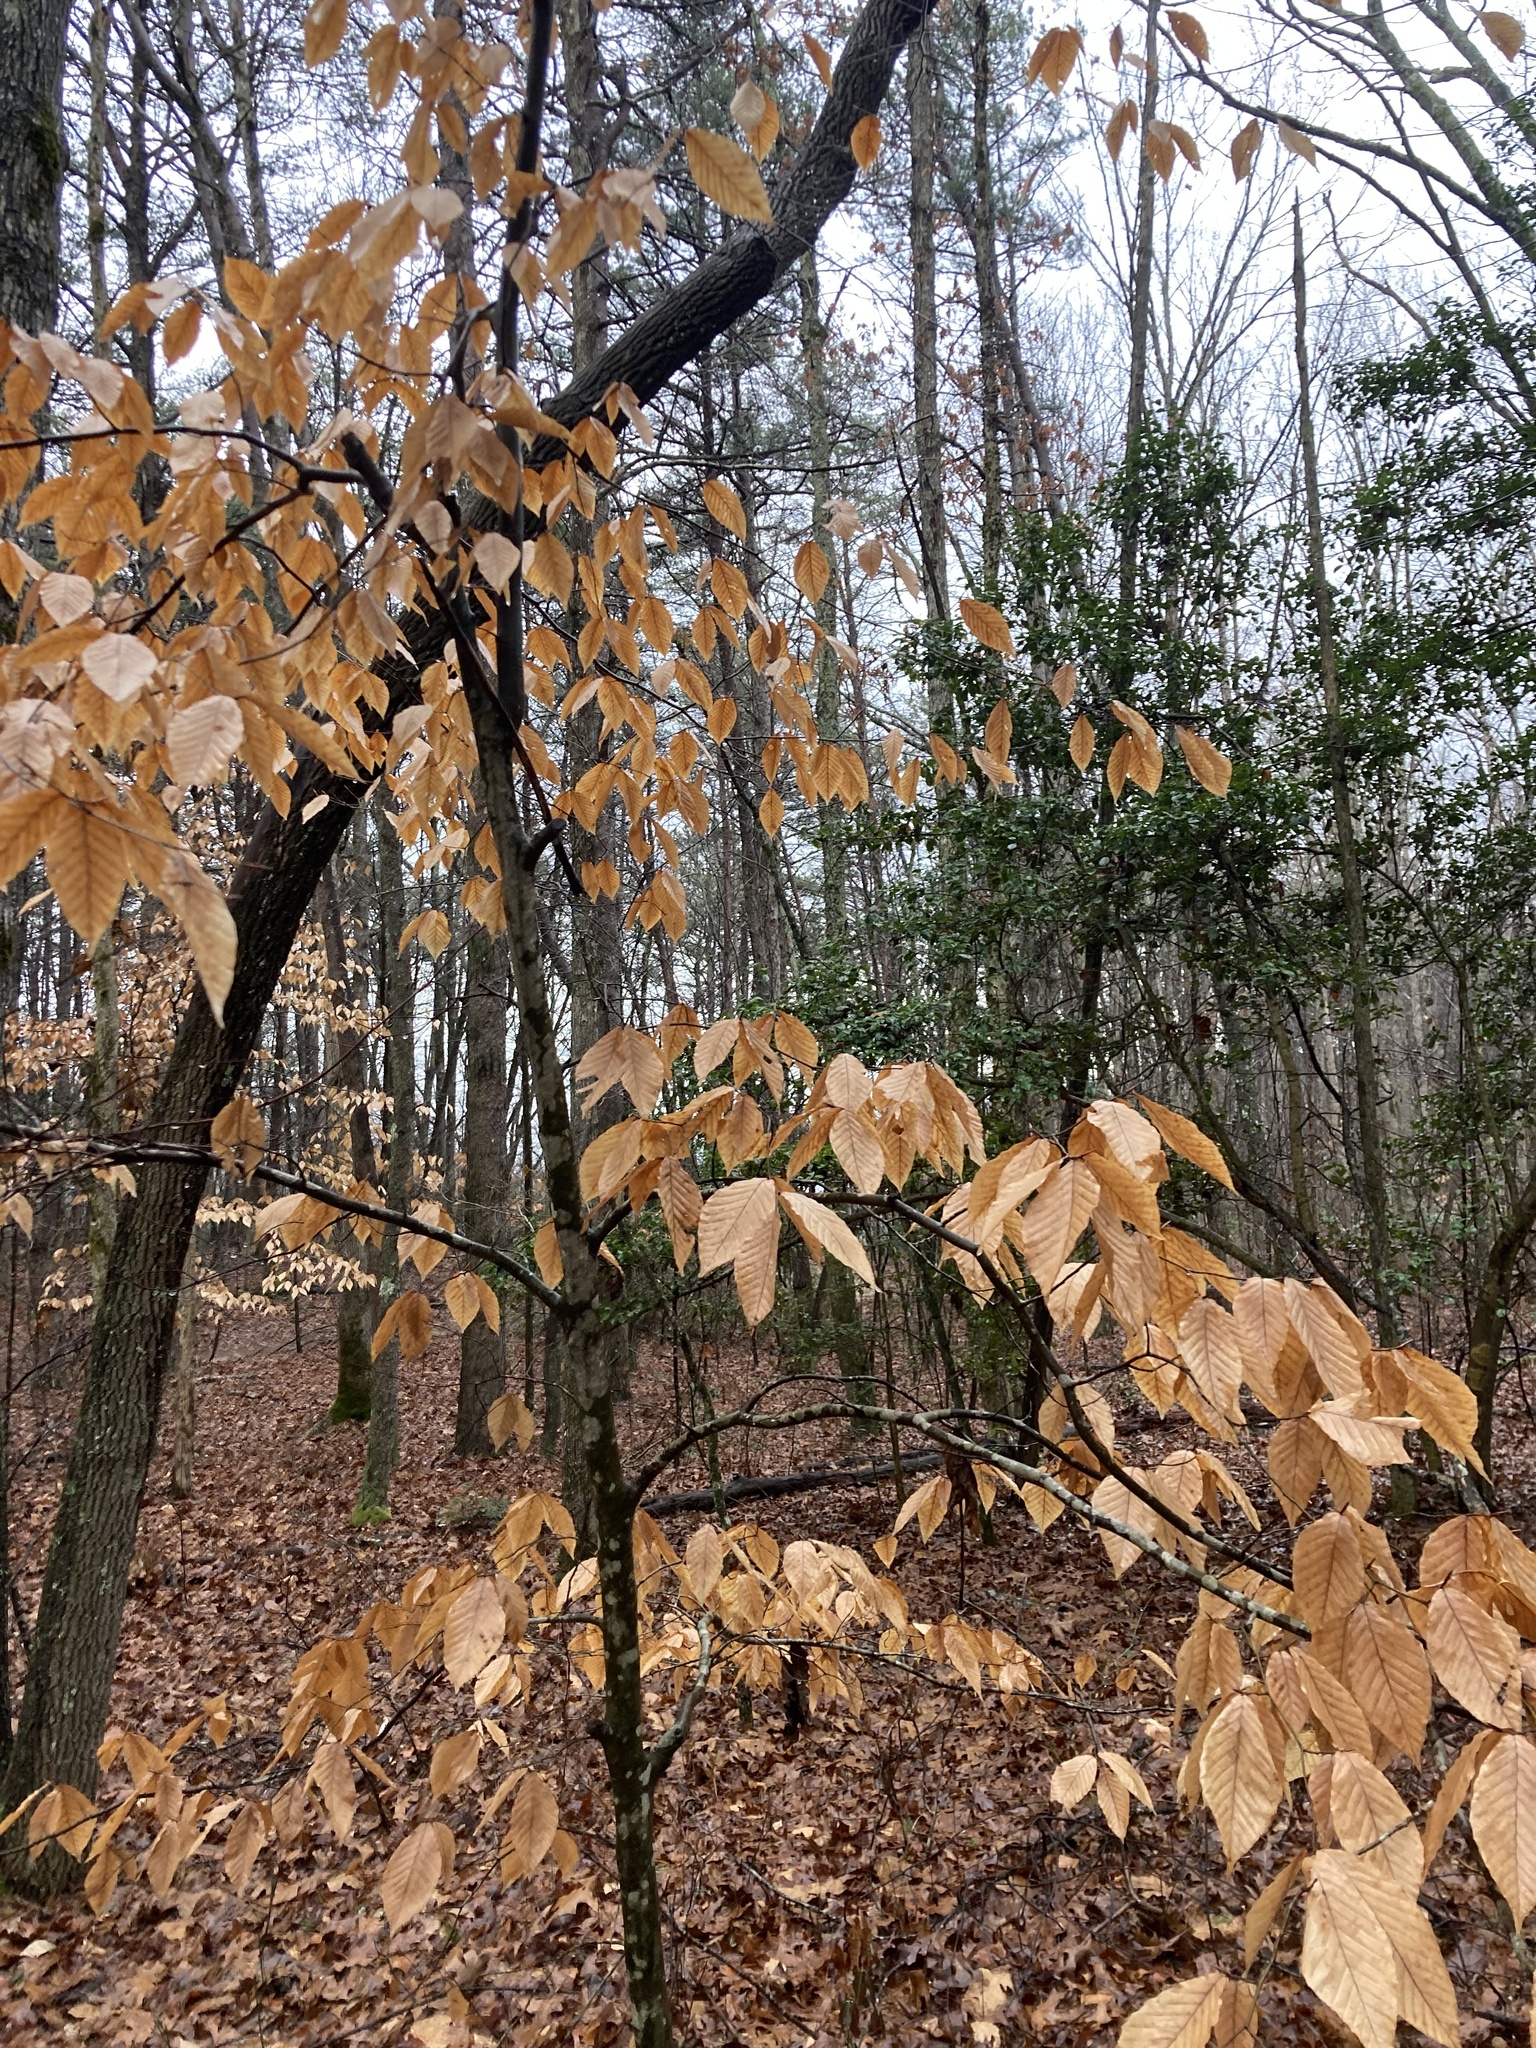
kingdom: Plantae
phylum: Tracheophyta
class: Magnoliopsida
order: Fagales
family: Fagaceae
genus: Fagus
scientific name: Fagus grandifolia
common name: American beech
